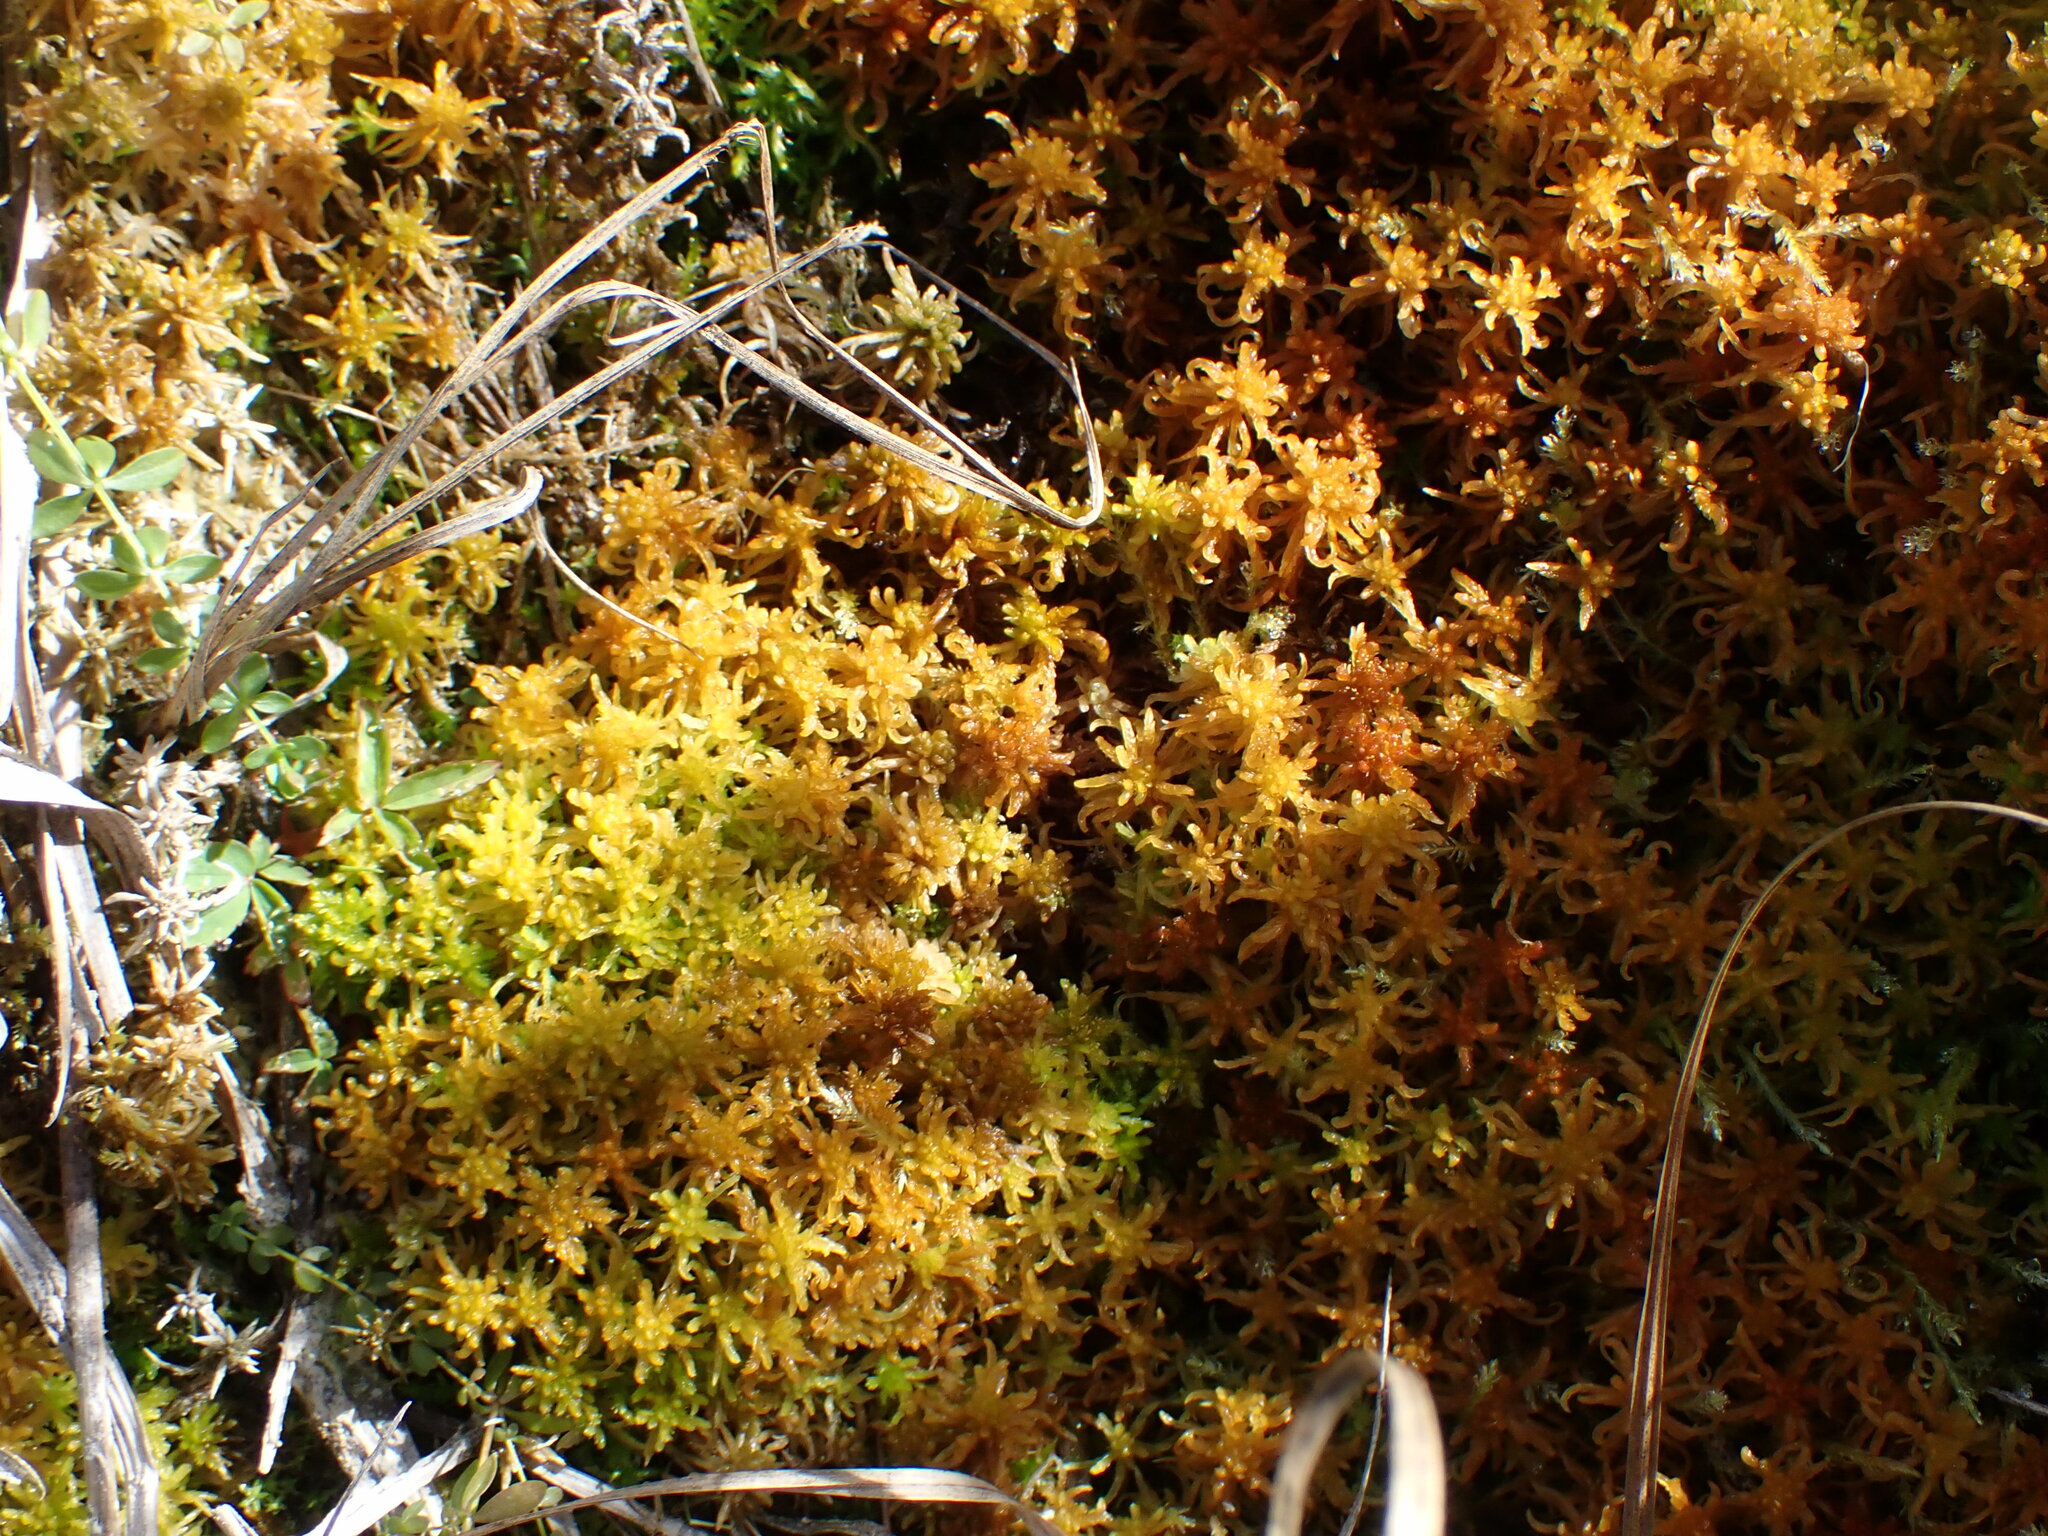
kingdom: Plantae
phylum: Bryophyta
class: Sphagnopsida
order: Sphagnales
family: Sphagnaceae
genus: Sphagnum
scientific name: Sphagnum subsecundum
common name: Orange peat moss
